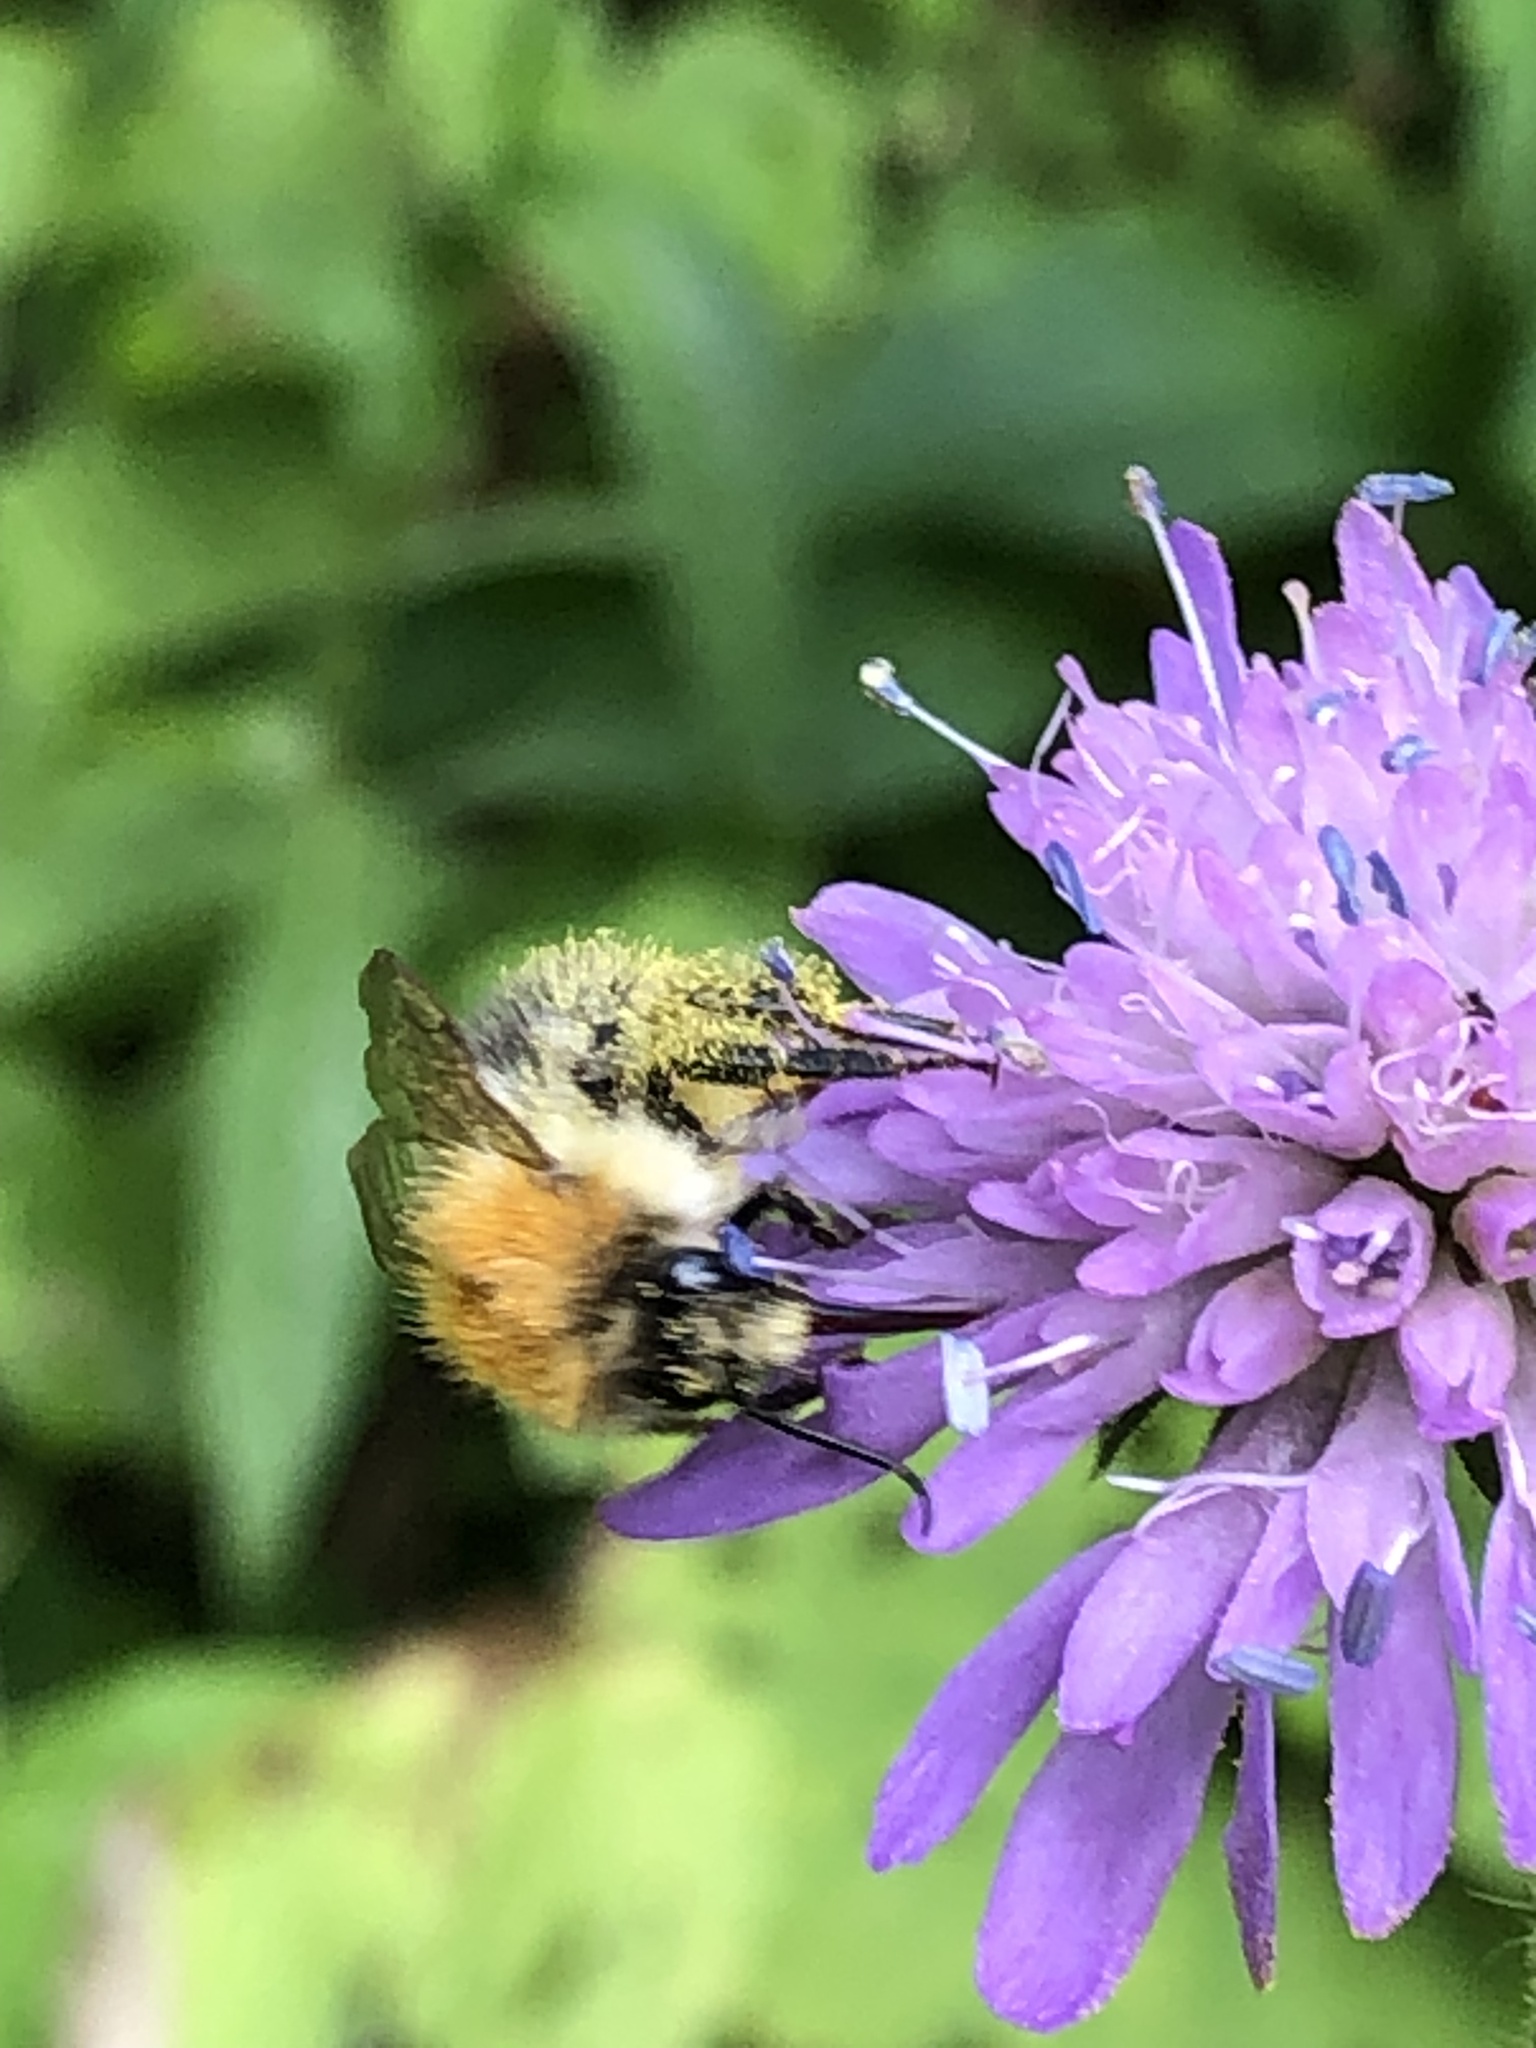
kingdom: Animalia
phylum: Arthropoda
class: Insecta
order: Hymenoptera
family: Apidae
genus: Bombus
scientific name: Bombus pascuorum
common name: Common carder bee
